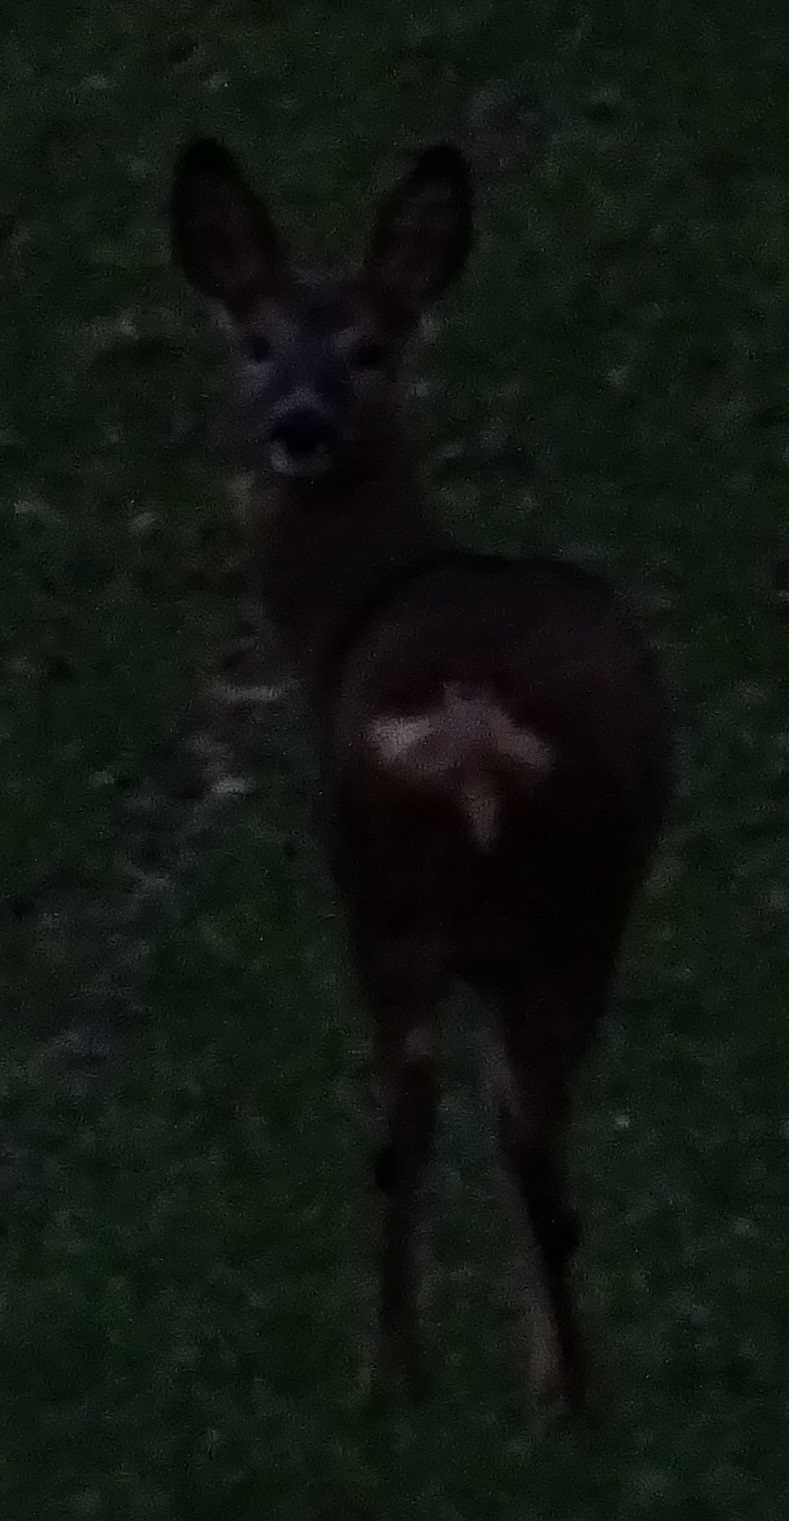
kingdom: Animalia
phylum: Chordata
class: Mammalia
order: Artiodactyla
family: Cervidae
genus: Capreolus
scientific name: Capreolus capreolus
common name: Western roe deer
